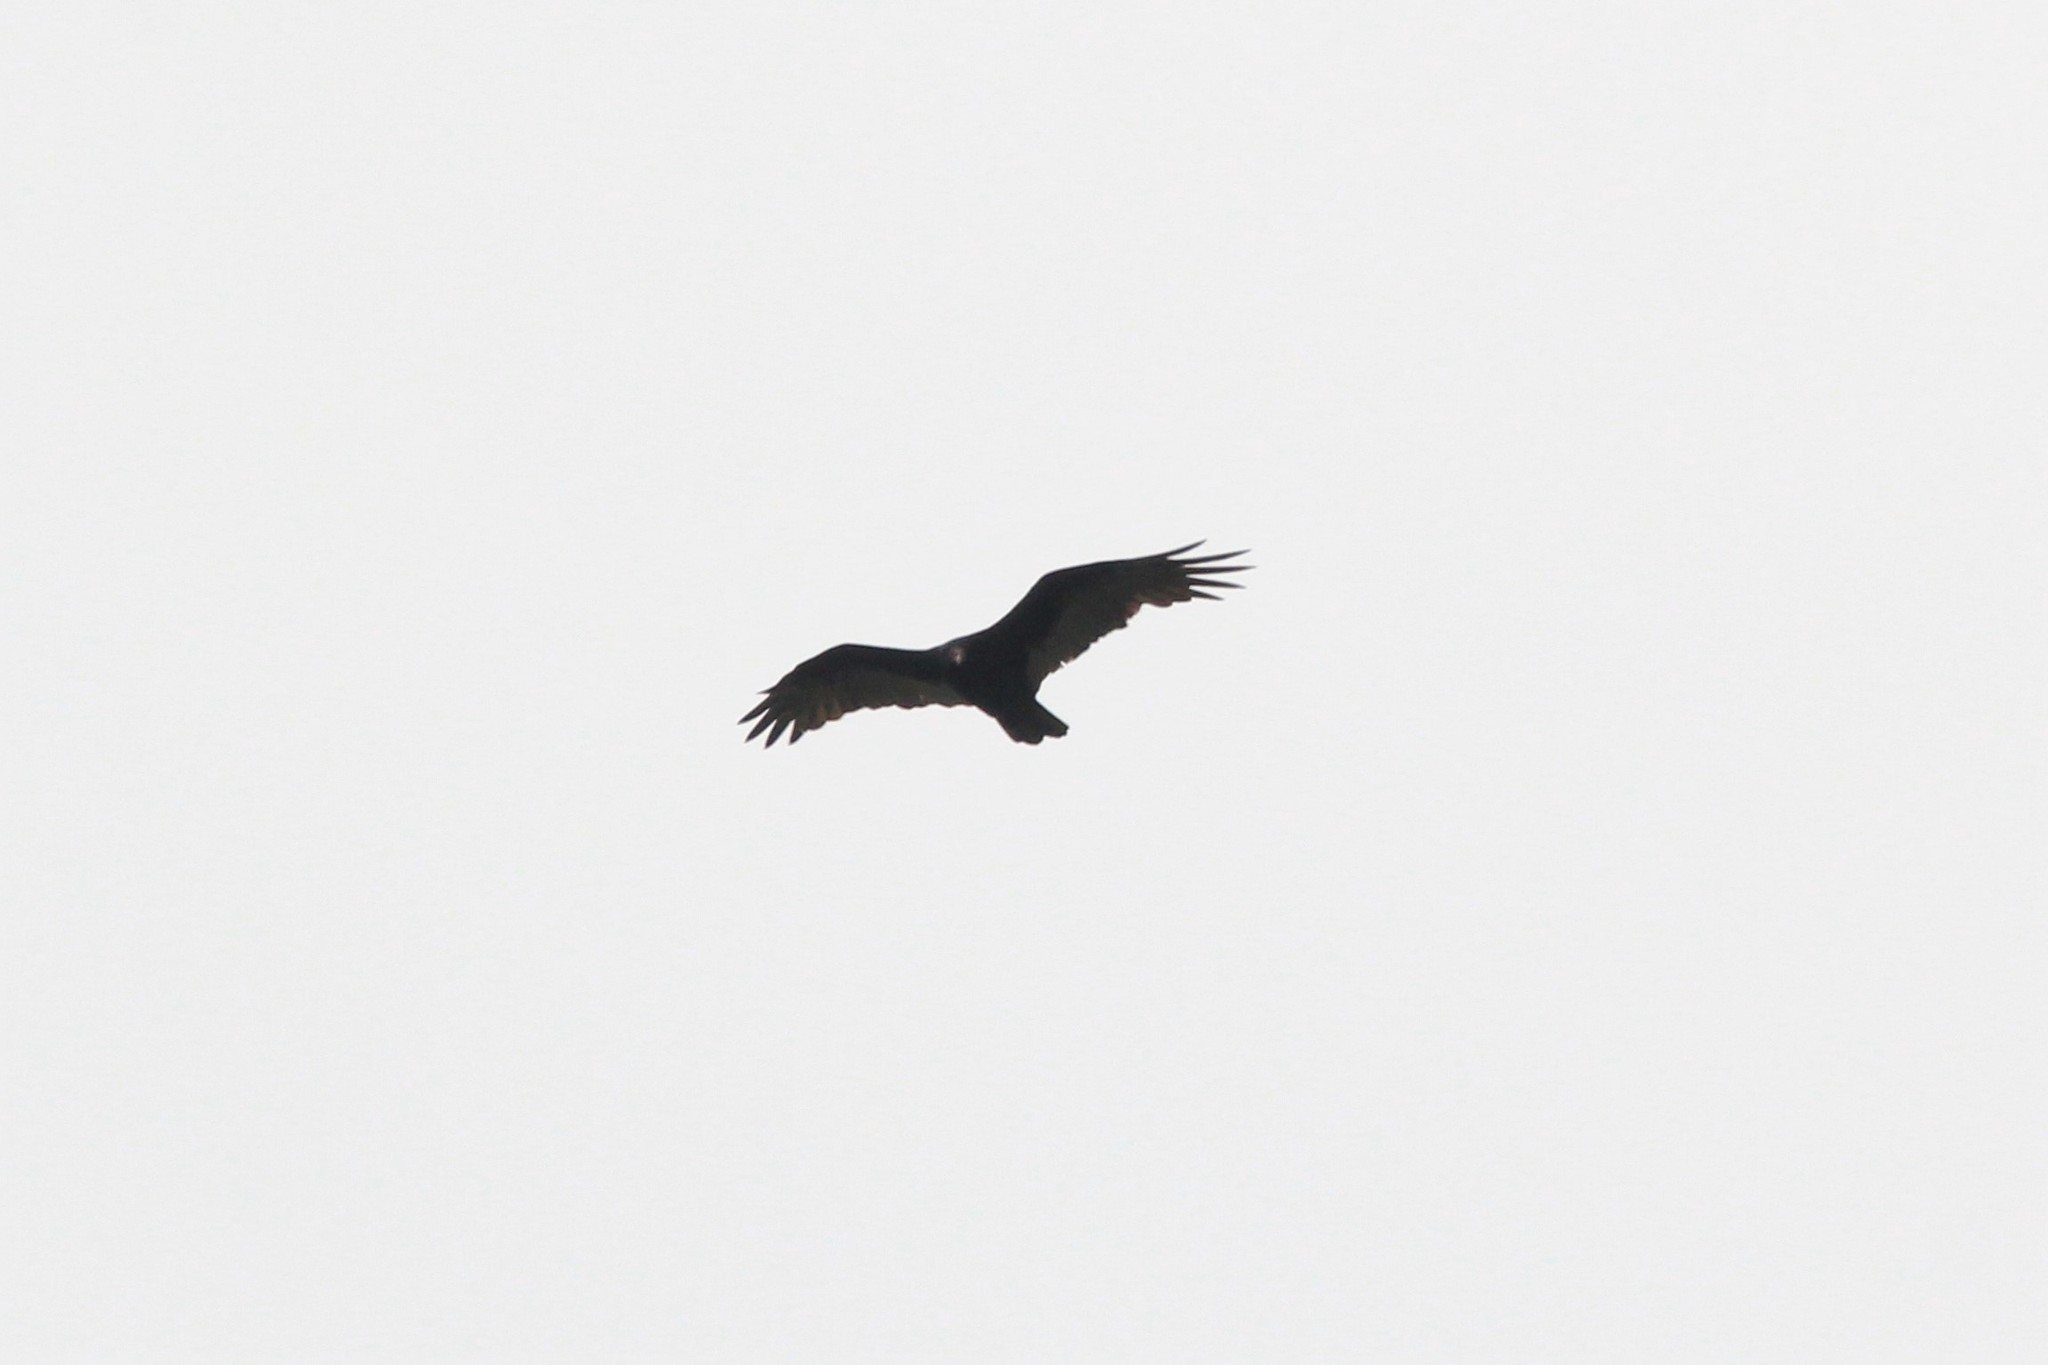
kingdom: Animalia
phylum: Chordata
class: Aves
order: Accipitriformes
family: Cathartidae
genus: Cathartes
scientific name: Cathartes aura
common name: Turkey vulture
